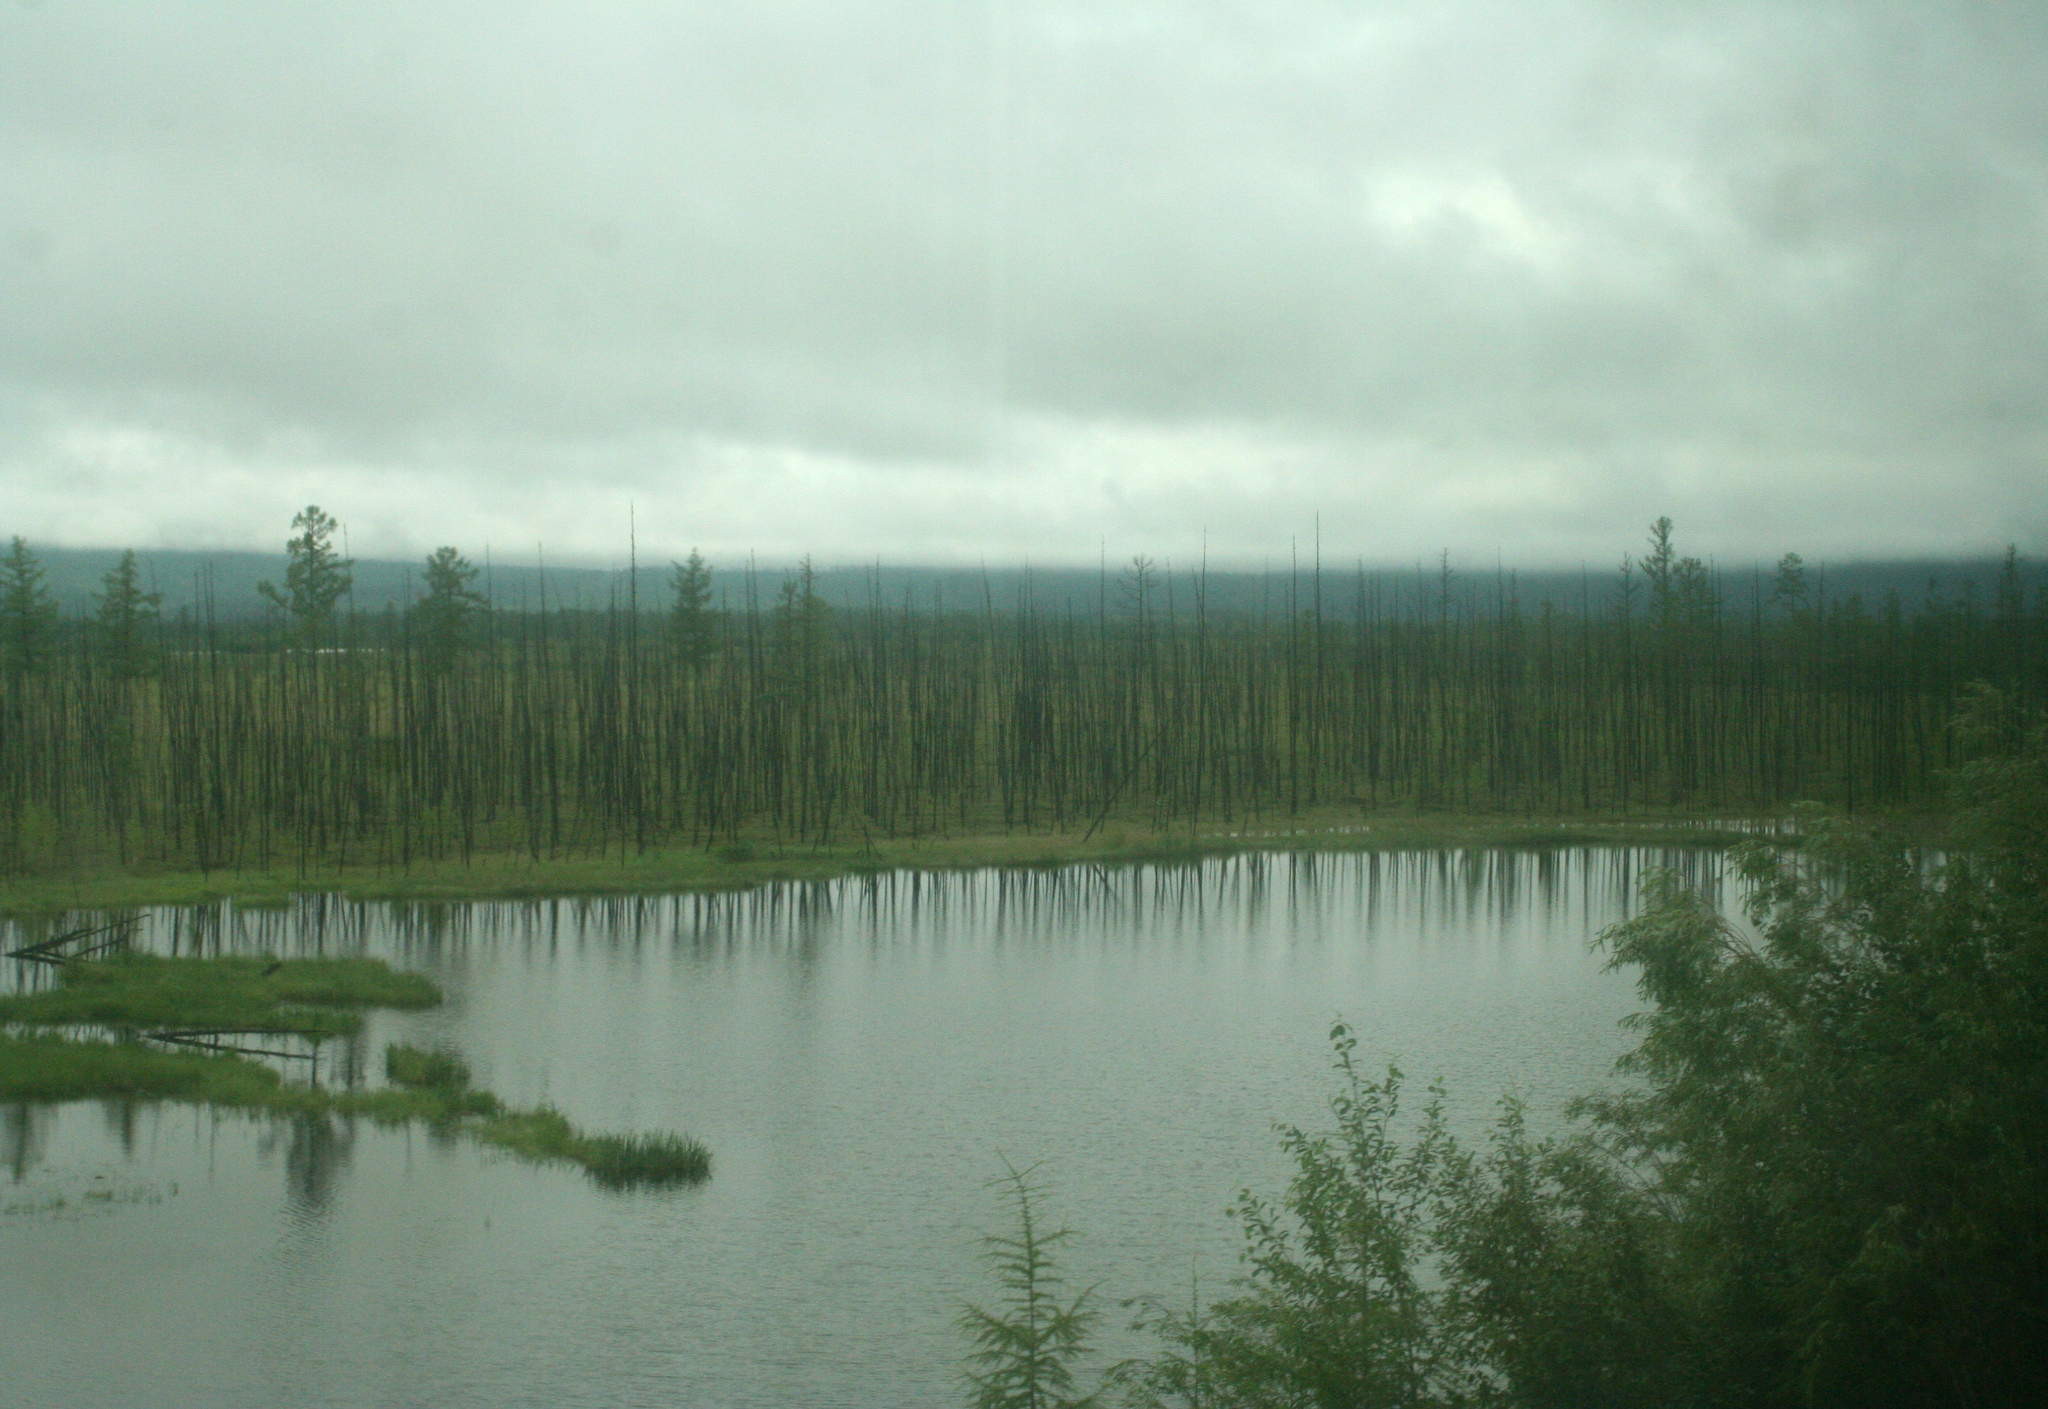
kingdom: Plantae
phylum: Tracheophyta
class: Pinopsida
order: Pinales
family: Pinaceae
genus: Larix
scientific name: Larix gmelinii
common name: Dahurian larch
